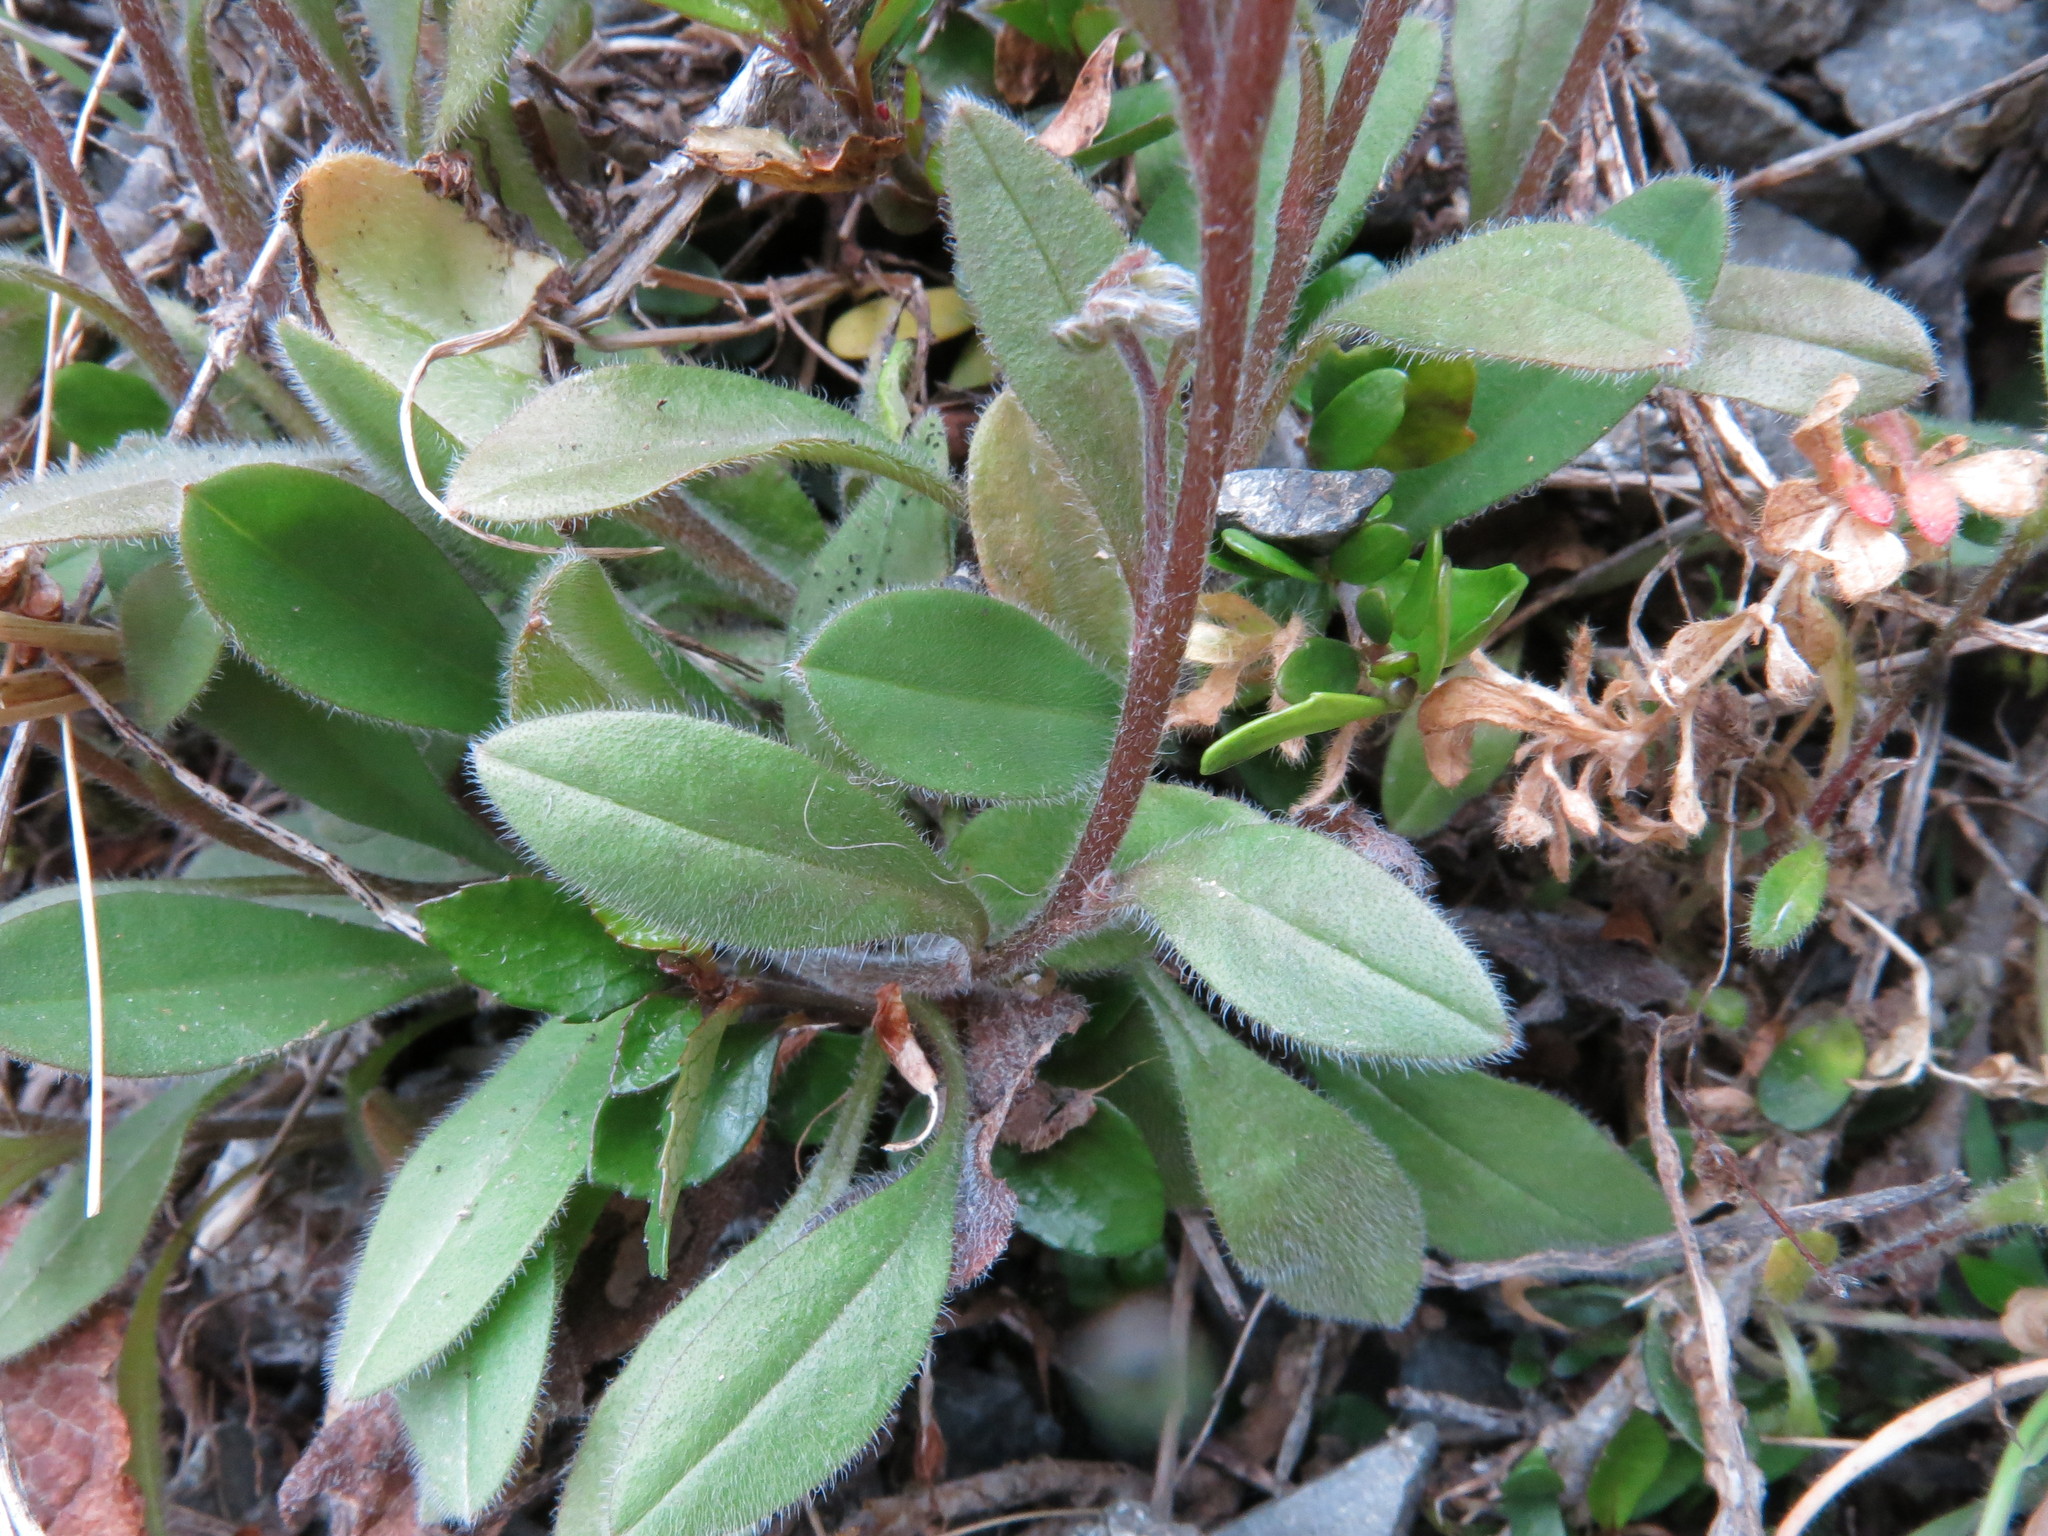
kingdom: Plantae
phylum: Tracheophyta
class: Magnoliopsida
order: Boraginales
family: Boraginaceae
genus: Myosotis
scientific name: Myosotis australis
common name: Australian forget-me-not
